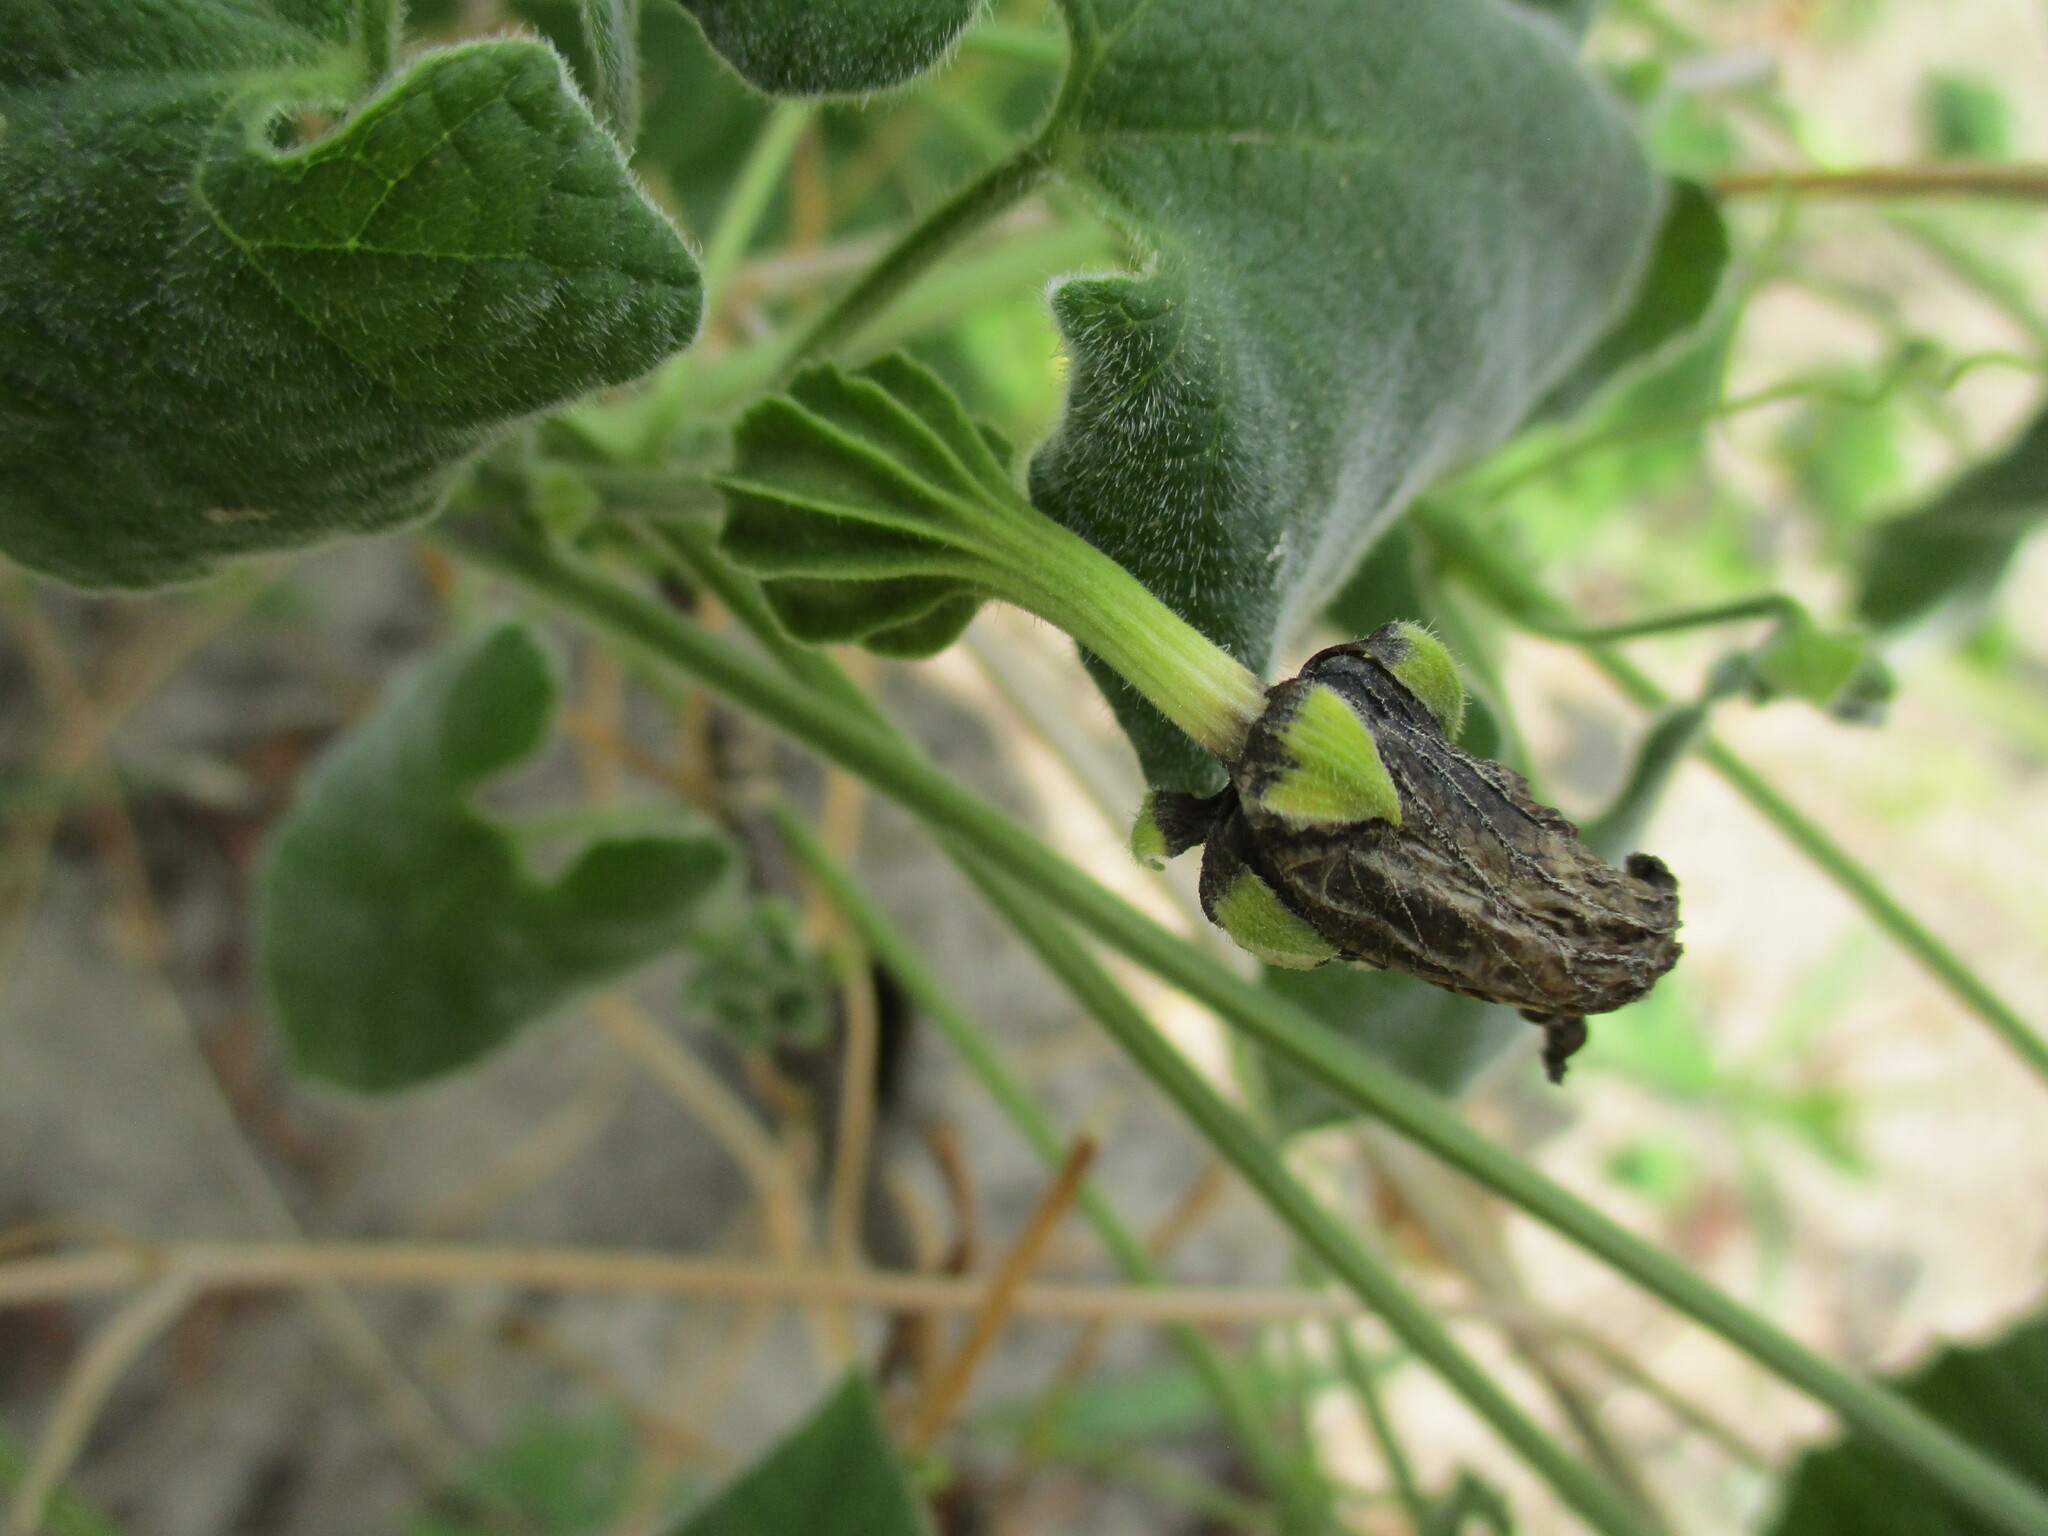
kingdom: Plantae
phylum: Tracheophyta
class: Magnoliopsida
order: Cucurbitales
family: Cucurbitaceae
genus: Momordica
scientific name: Momordica corymbifera
